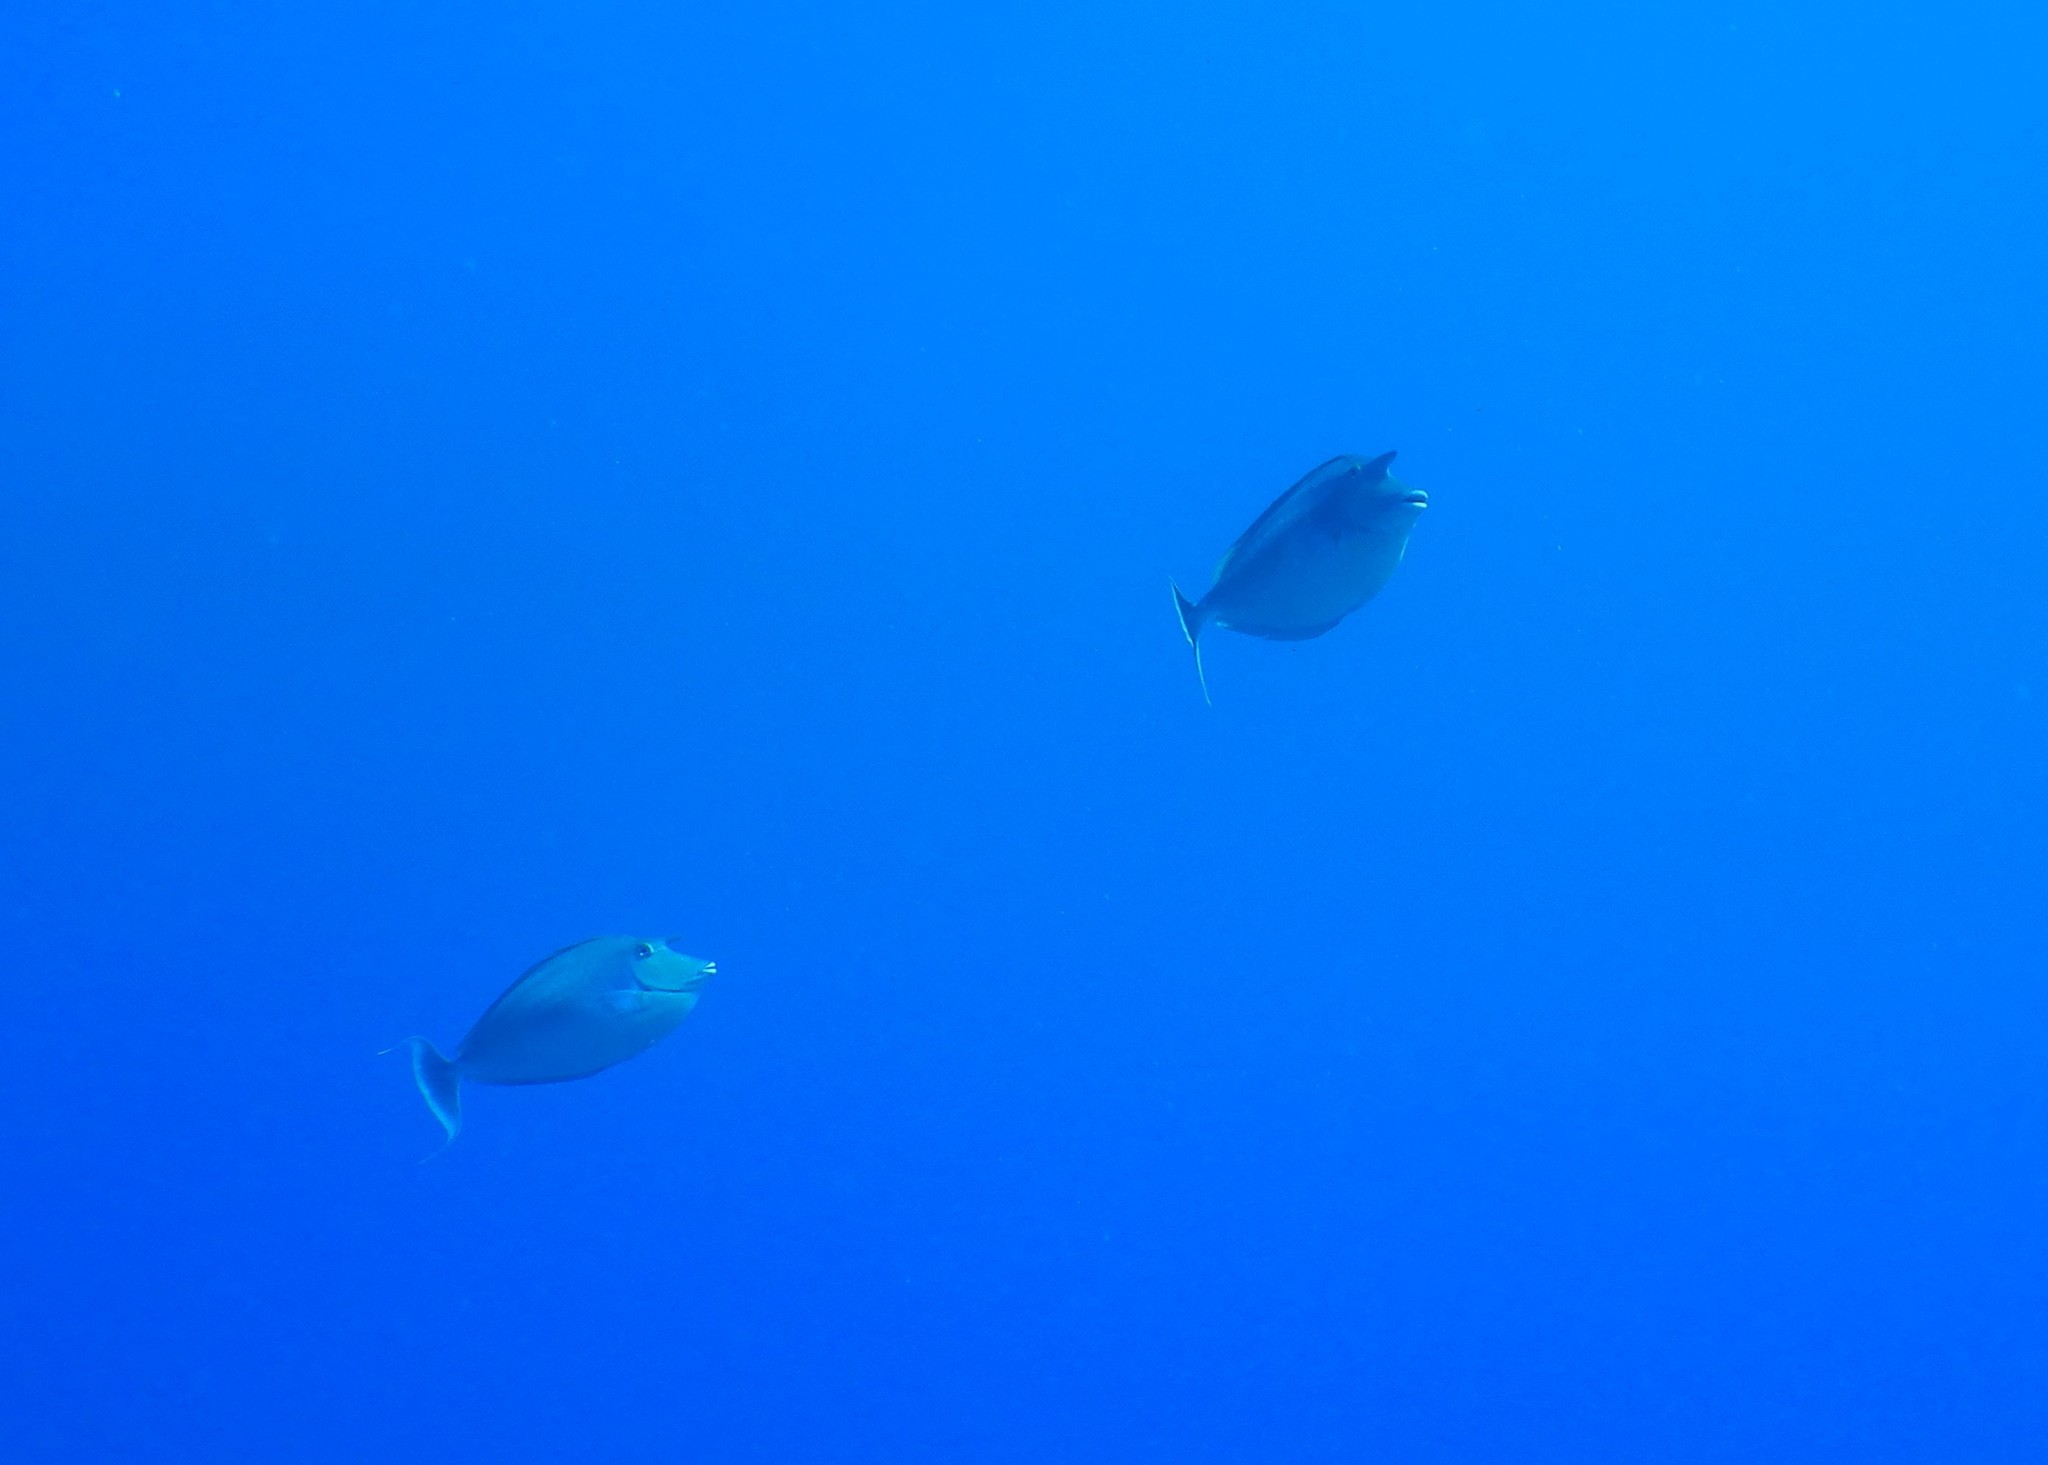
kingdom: Animalia
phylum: Chordata
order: Perciformes
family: Acanthuridae
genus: Naso
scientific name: Naso unicornis
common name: Bluespine unicornfish
